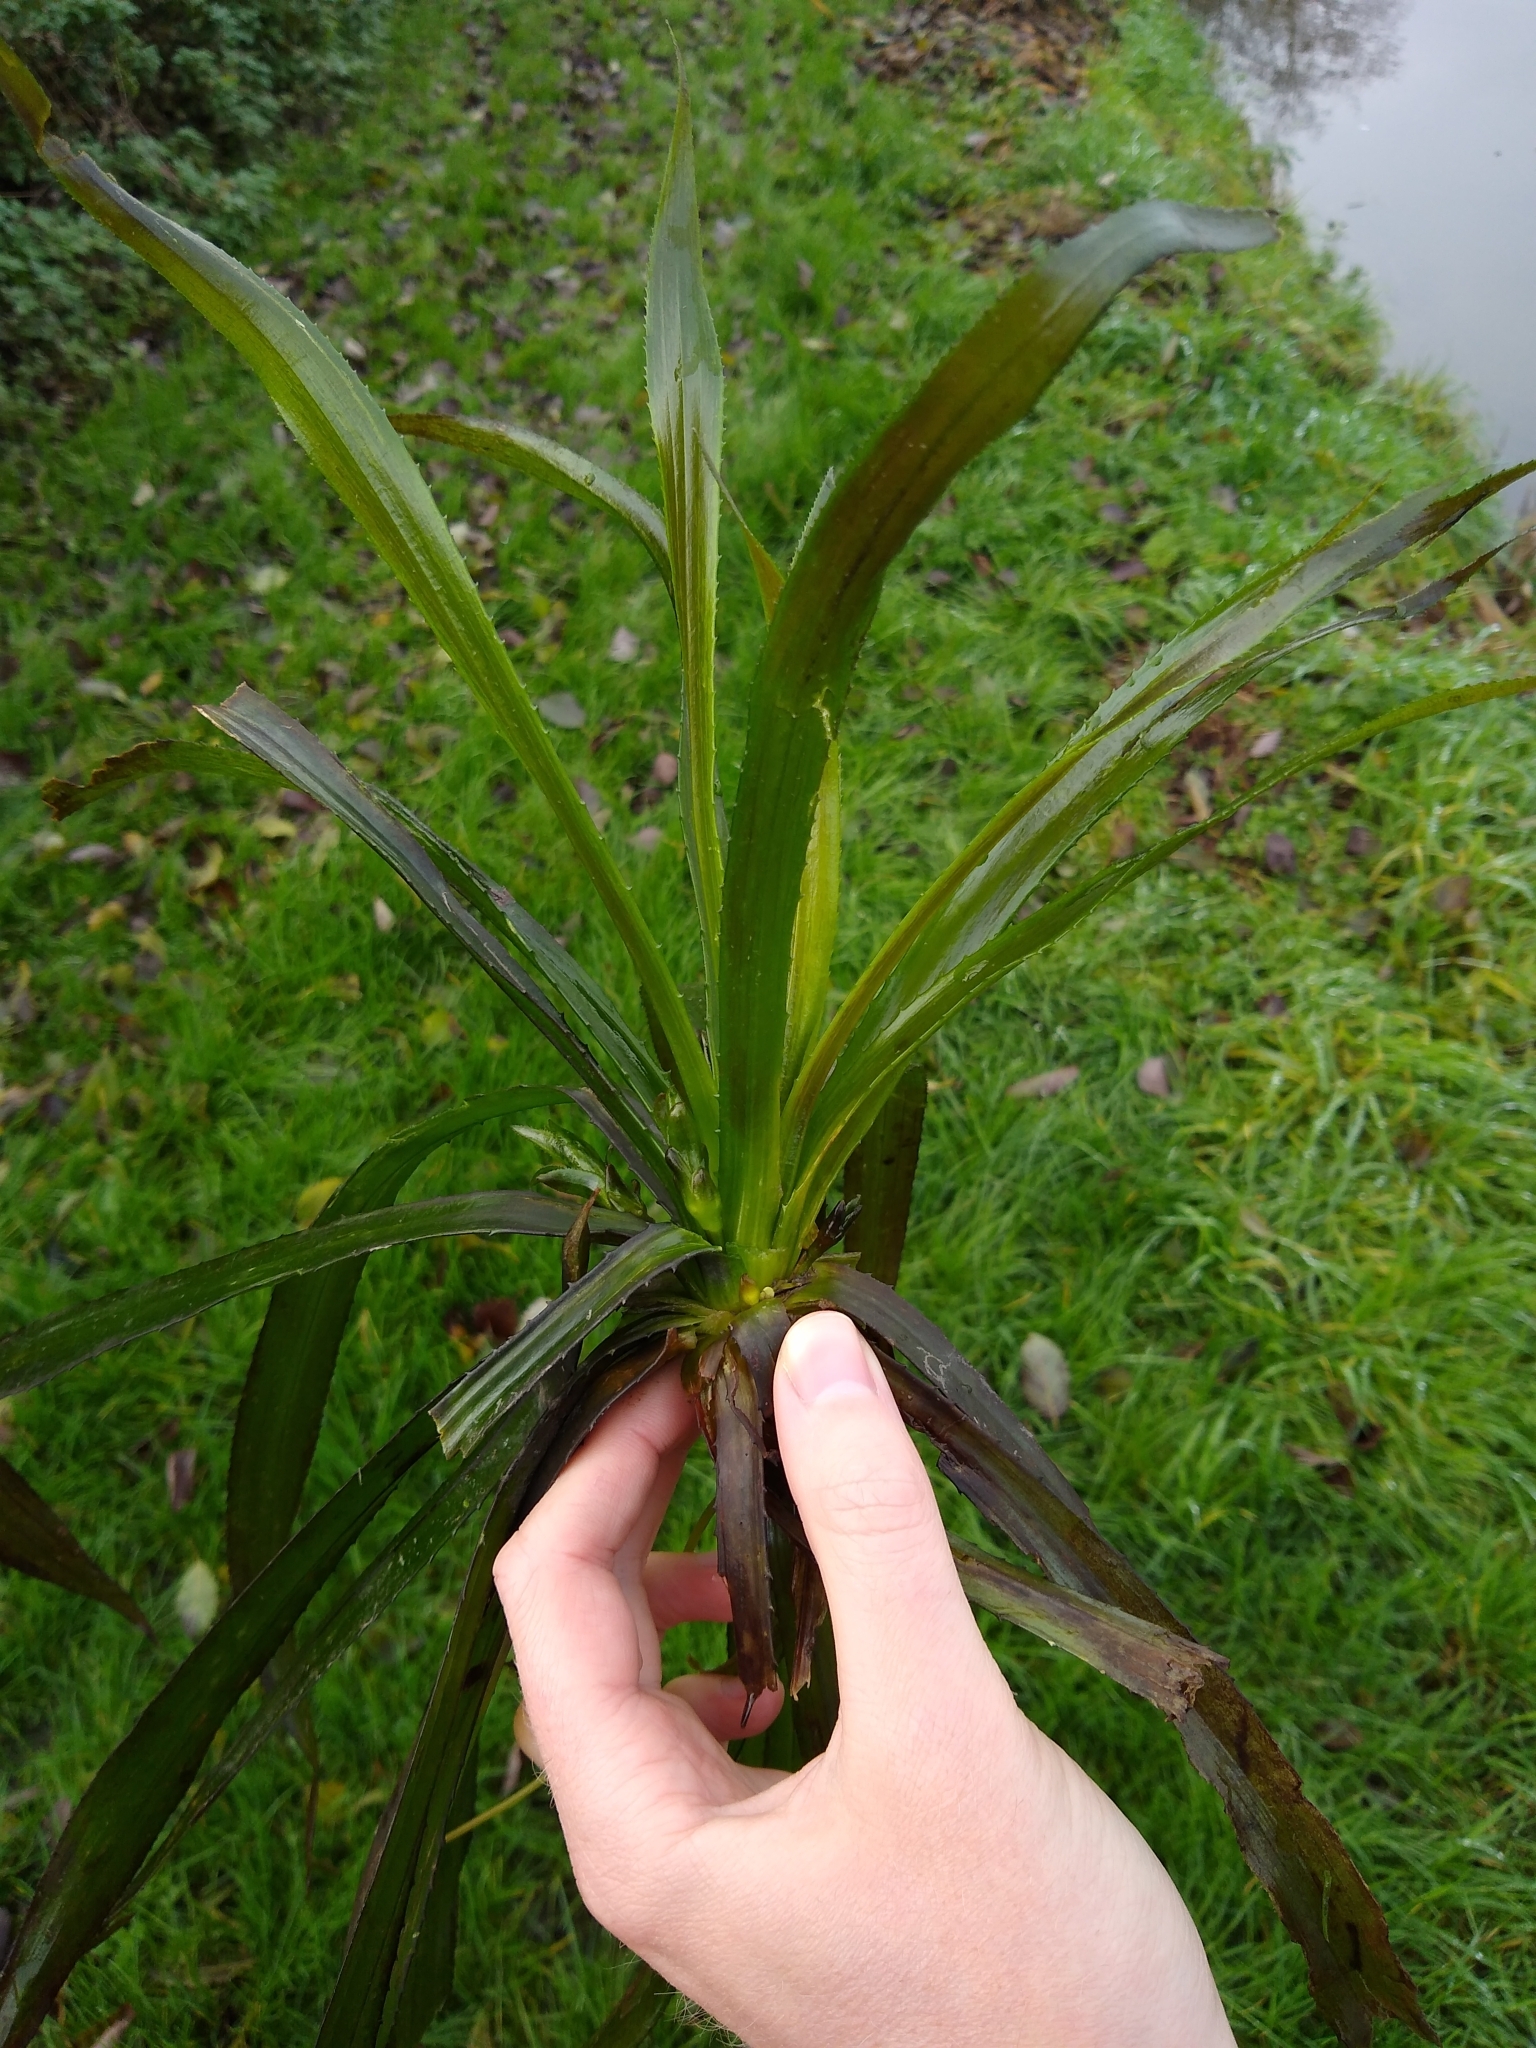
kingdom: Plantae
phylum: Tracheophyta
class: Liliopsida
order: Alismatales
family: Hydrocharitaceae
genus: Stratiotes
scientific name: Stratiotes aloides
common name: Water-soldier
